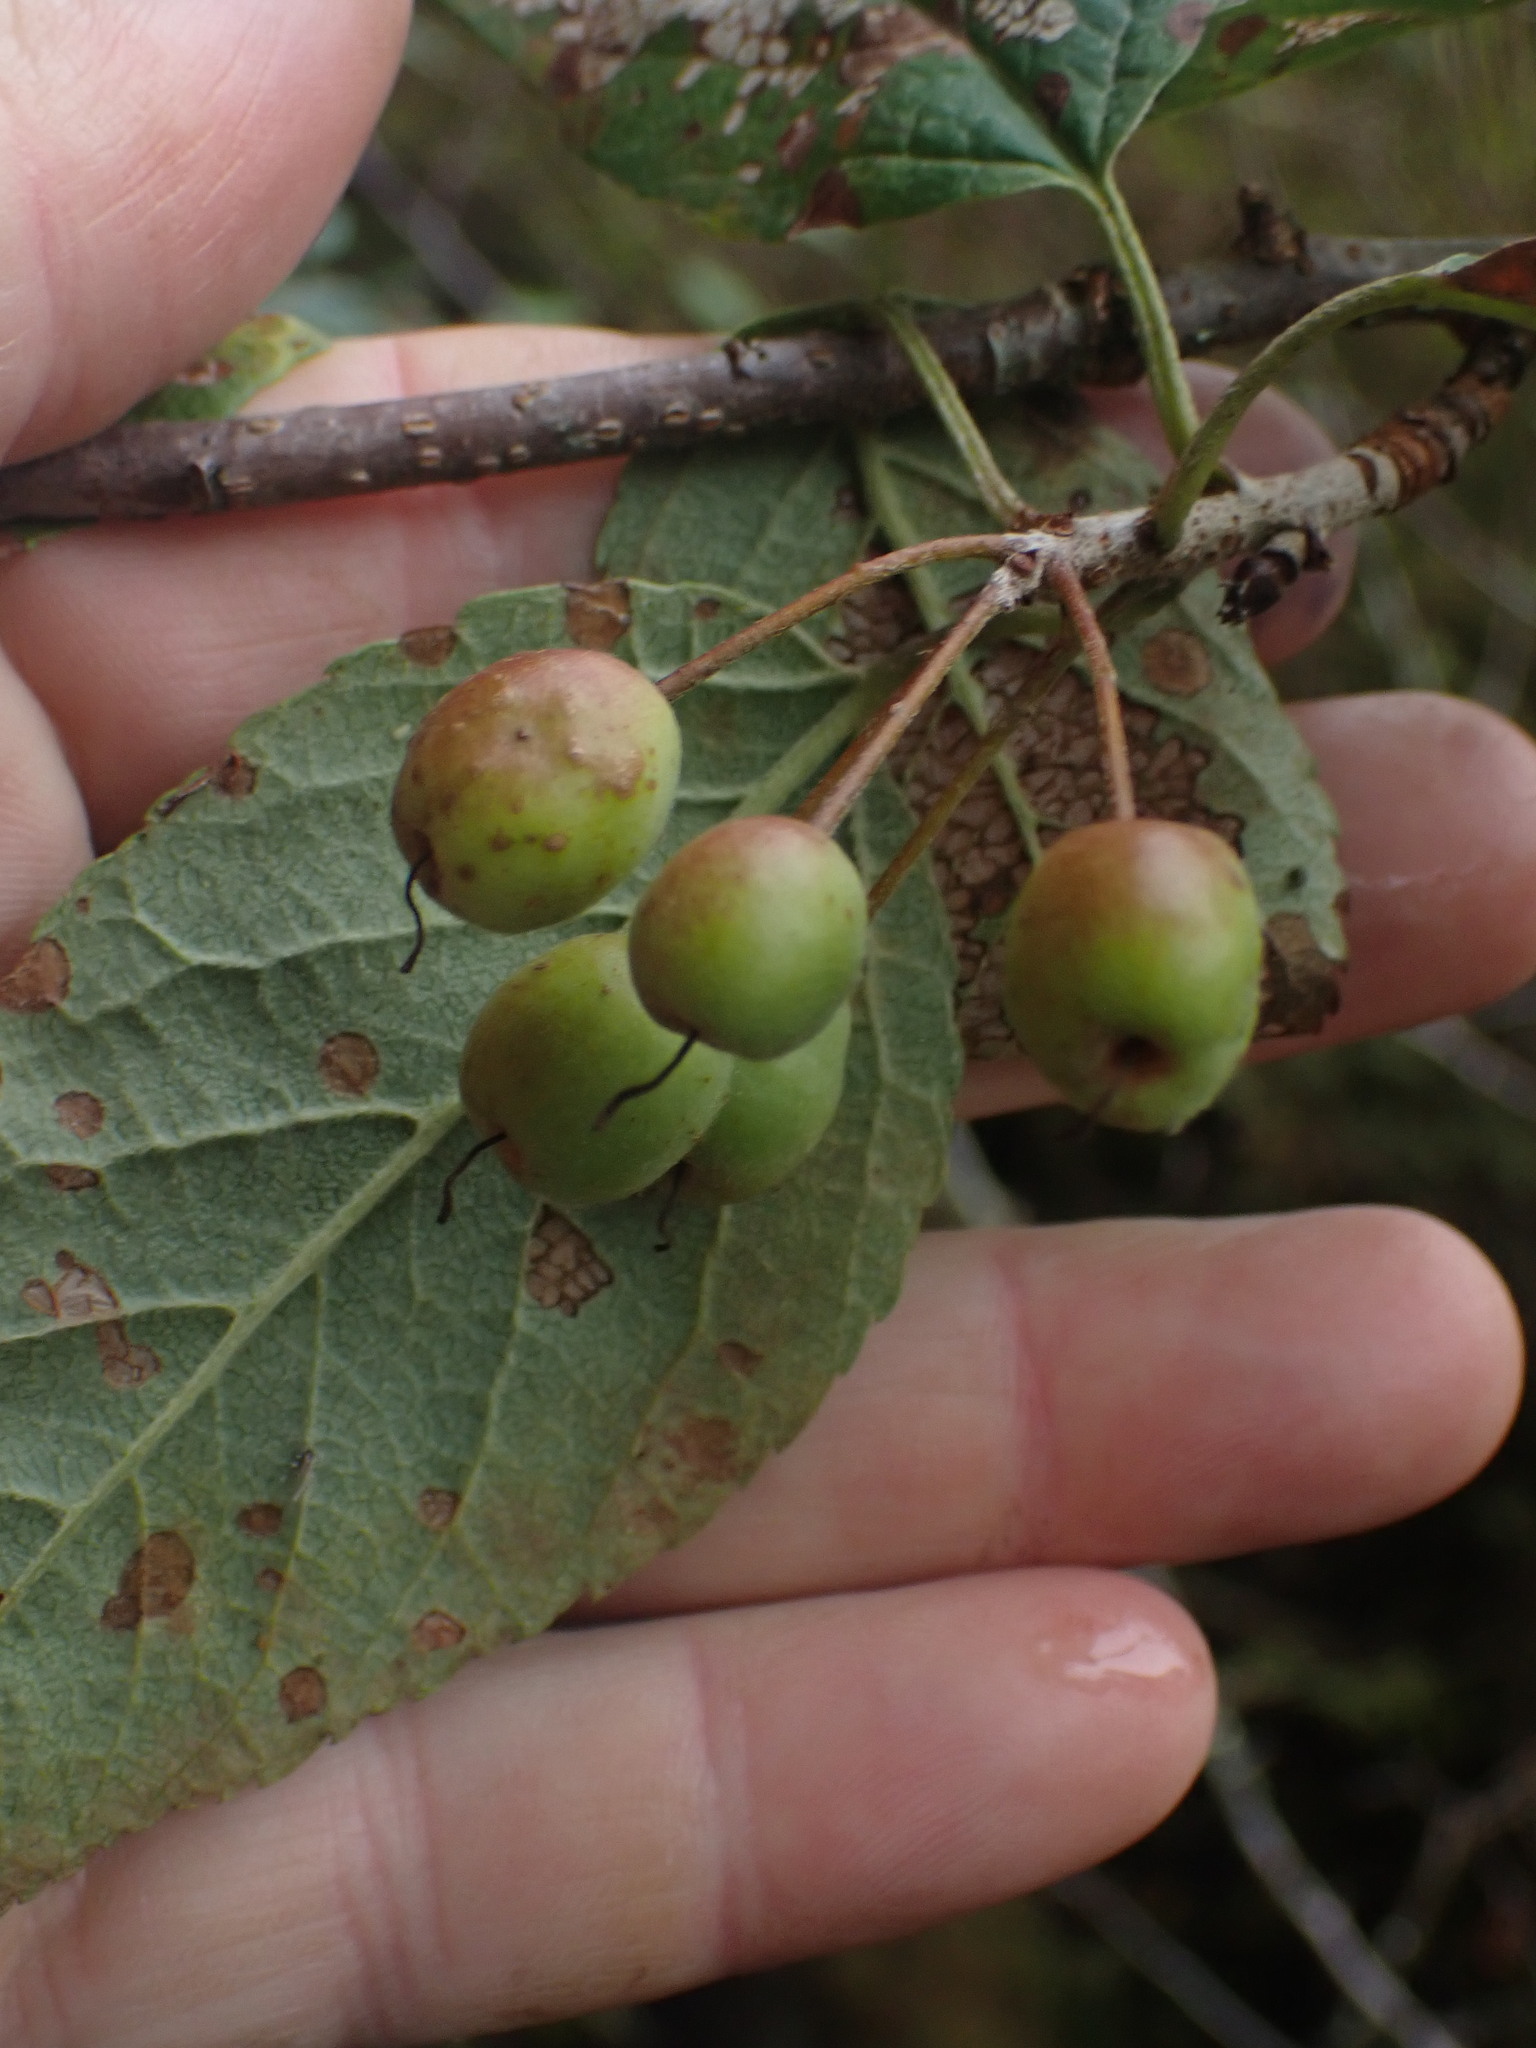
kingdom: Plantae
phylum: Tracheophyta
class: Magnoliopsida
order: Rosales
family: Rosaceae
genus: Malus
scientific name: Malus fusca
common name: Oregon crab apple
